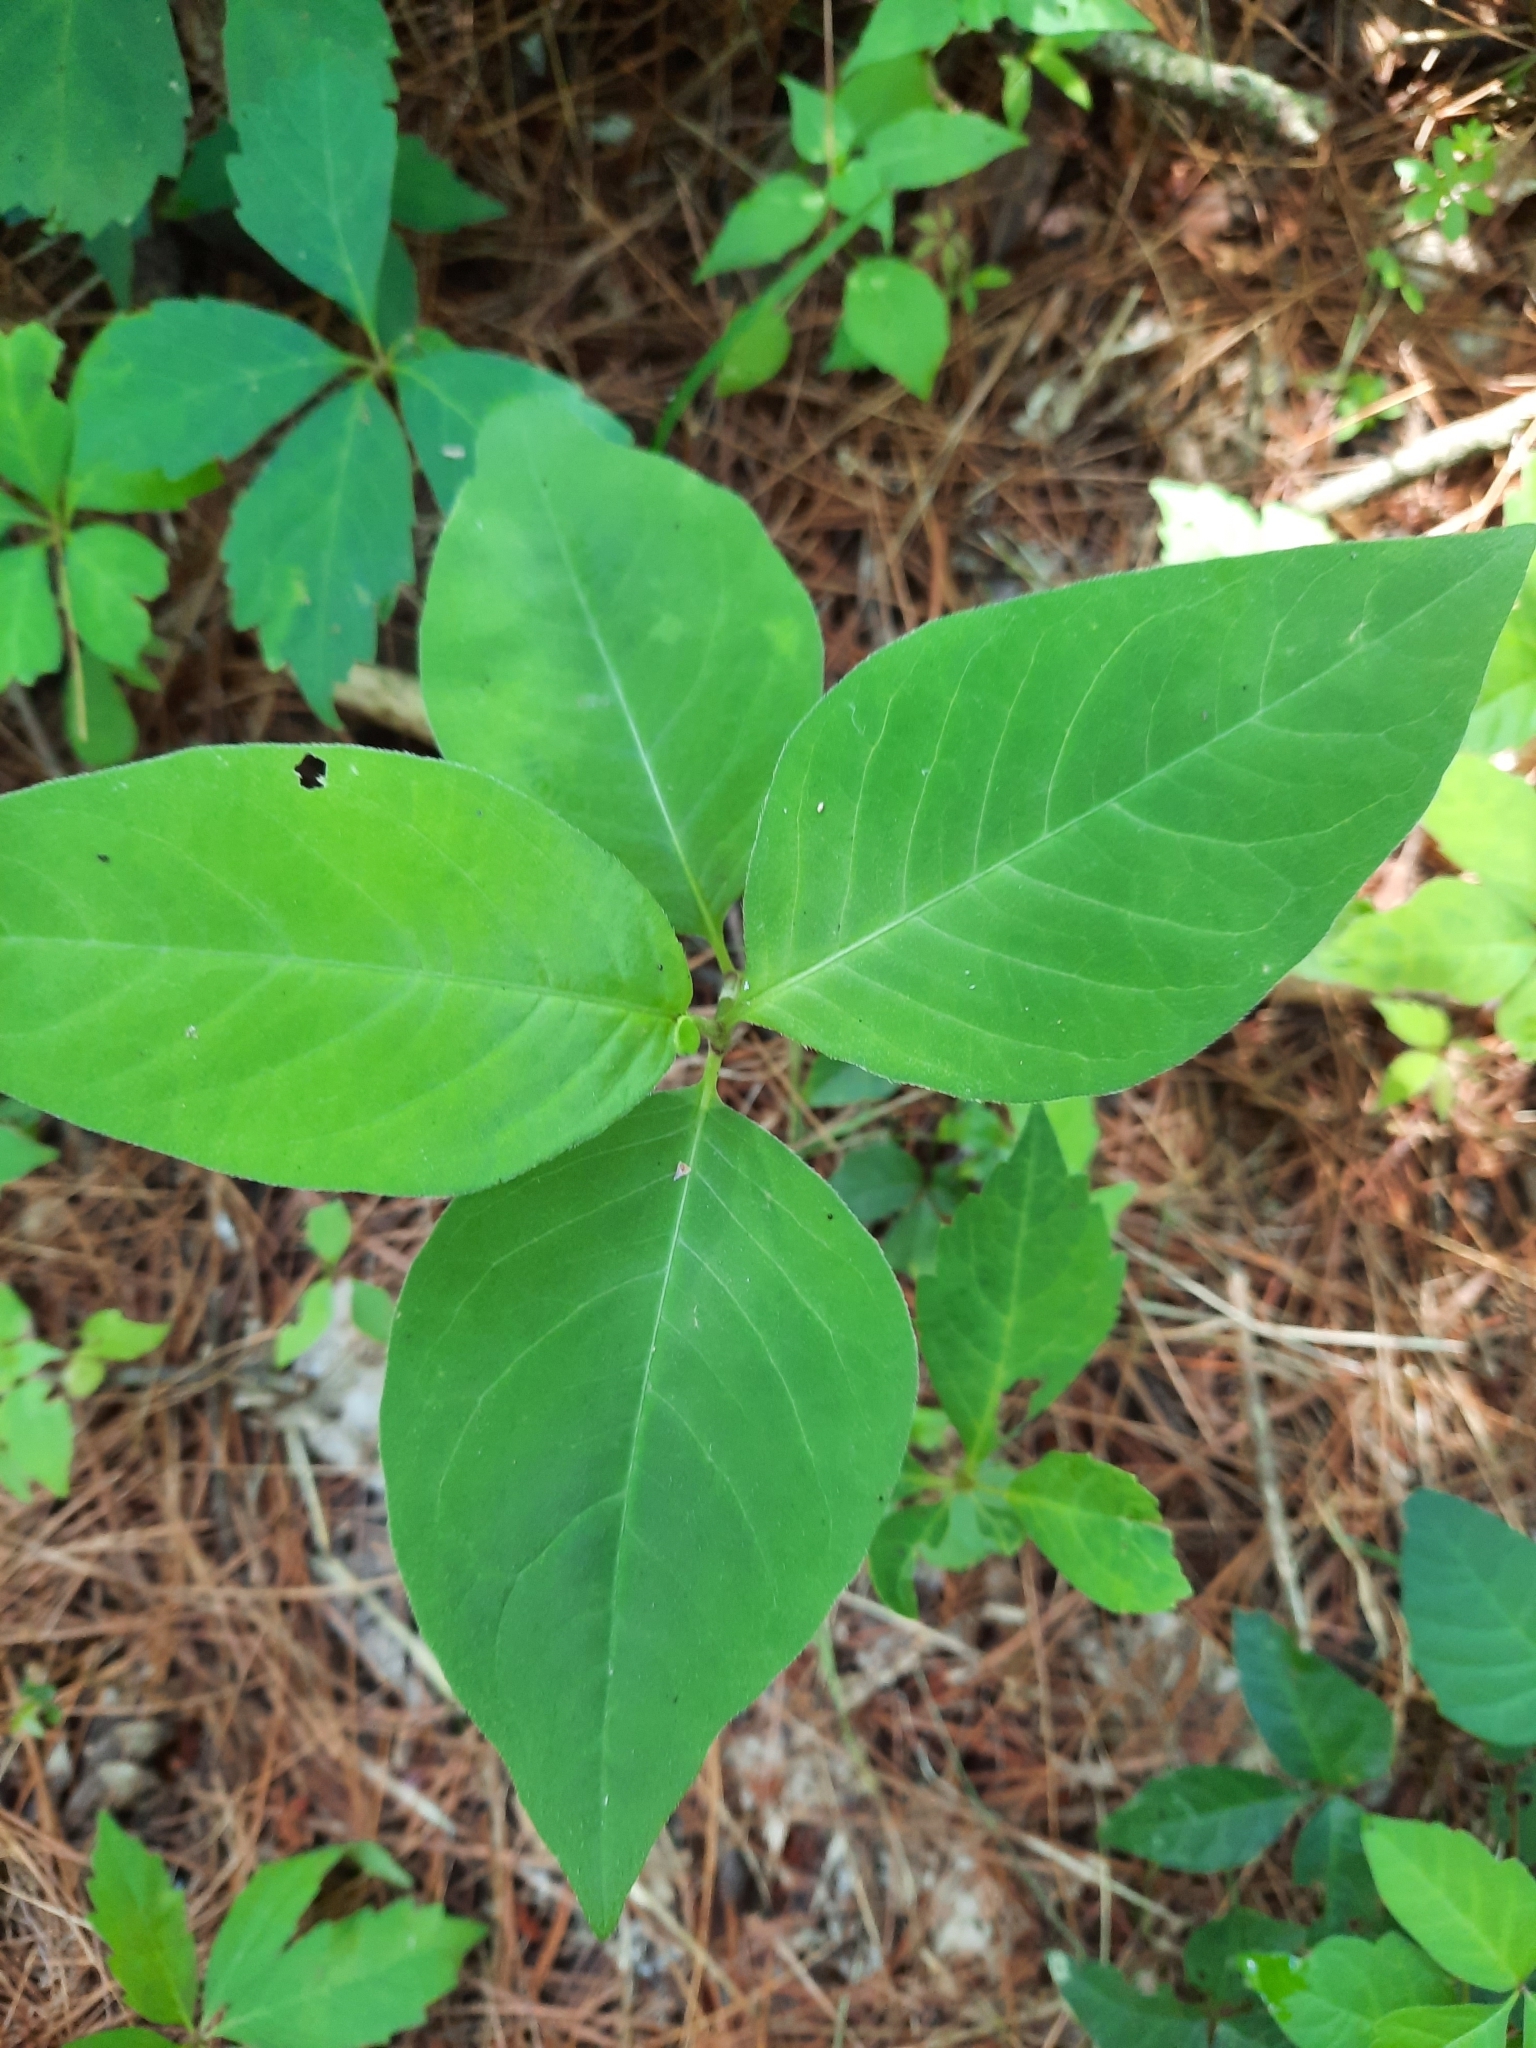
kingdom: Plantae
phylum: Tracheophyta
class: Magnoliopsida
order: Caryophyllales
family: Polygonaceae
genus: Persicaria
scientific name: Persicaria virginiana
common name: Jumpseed
